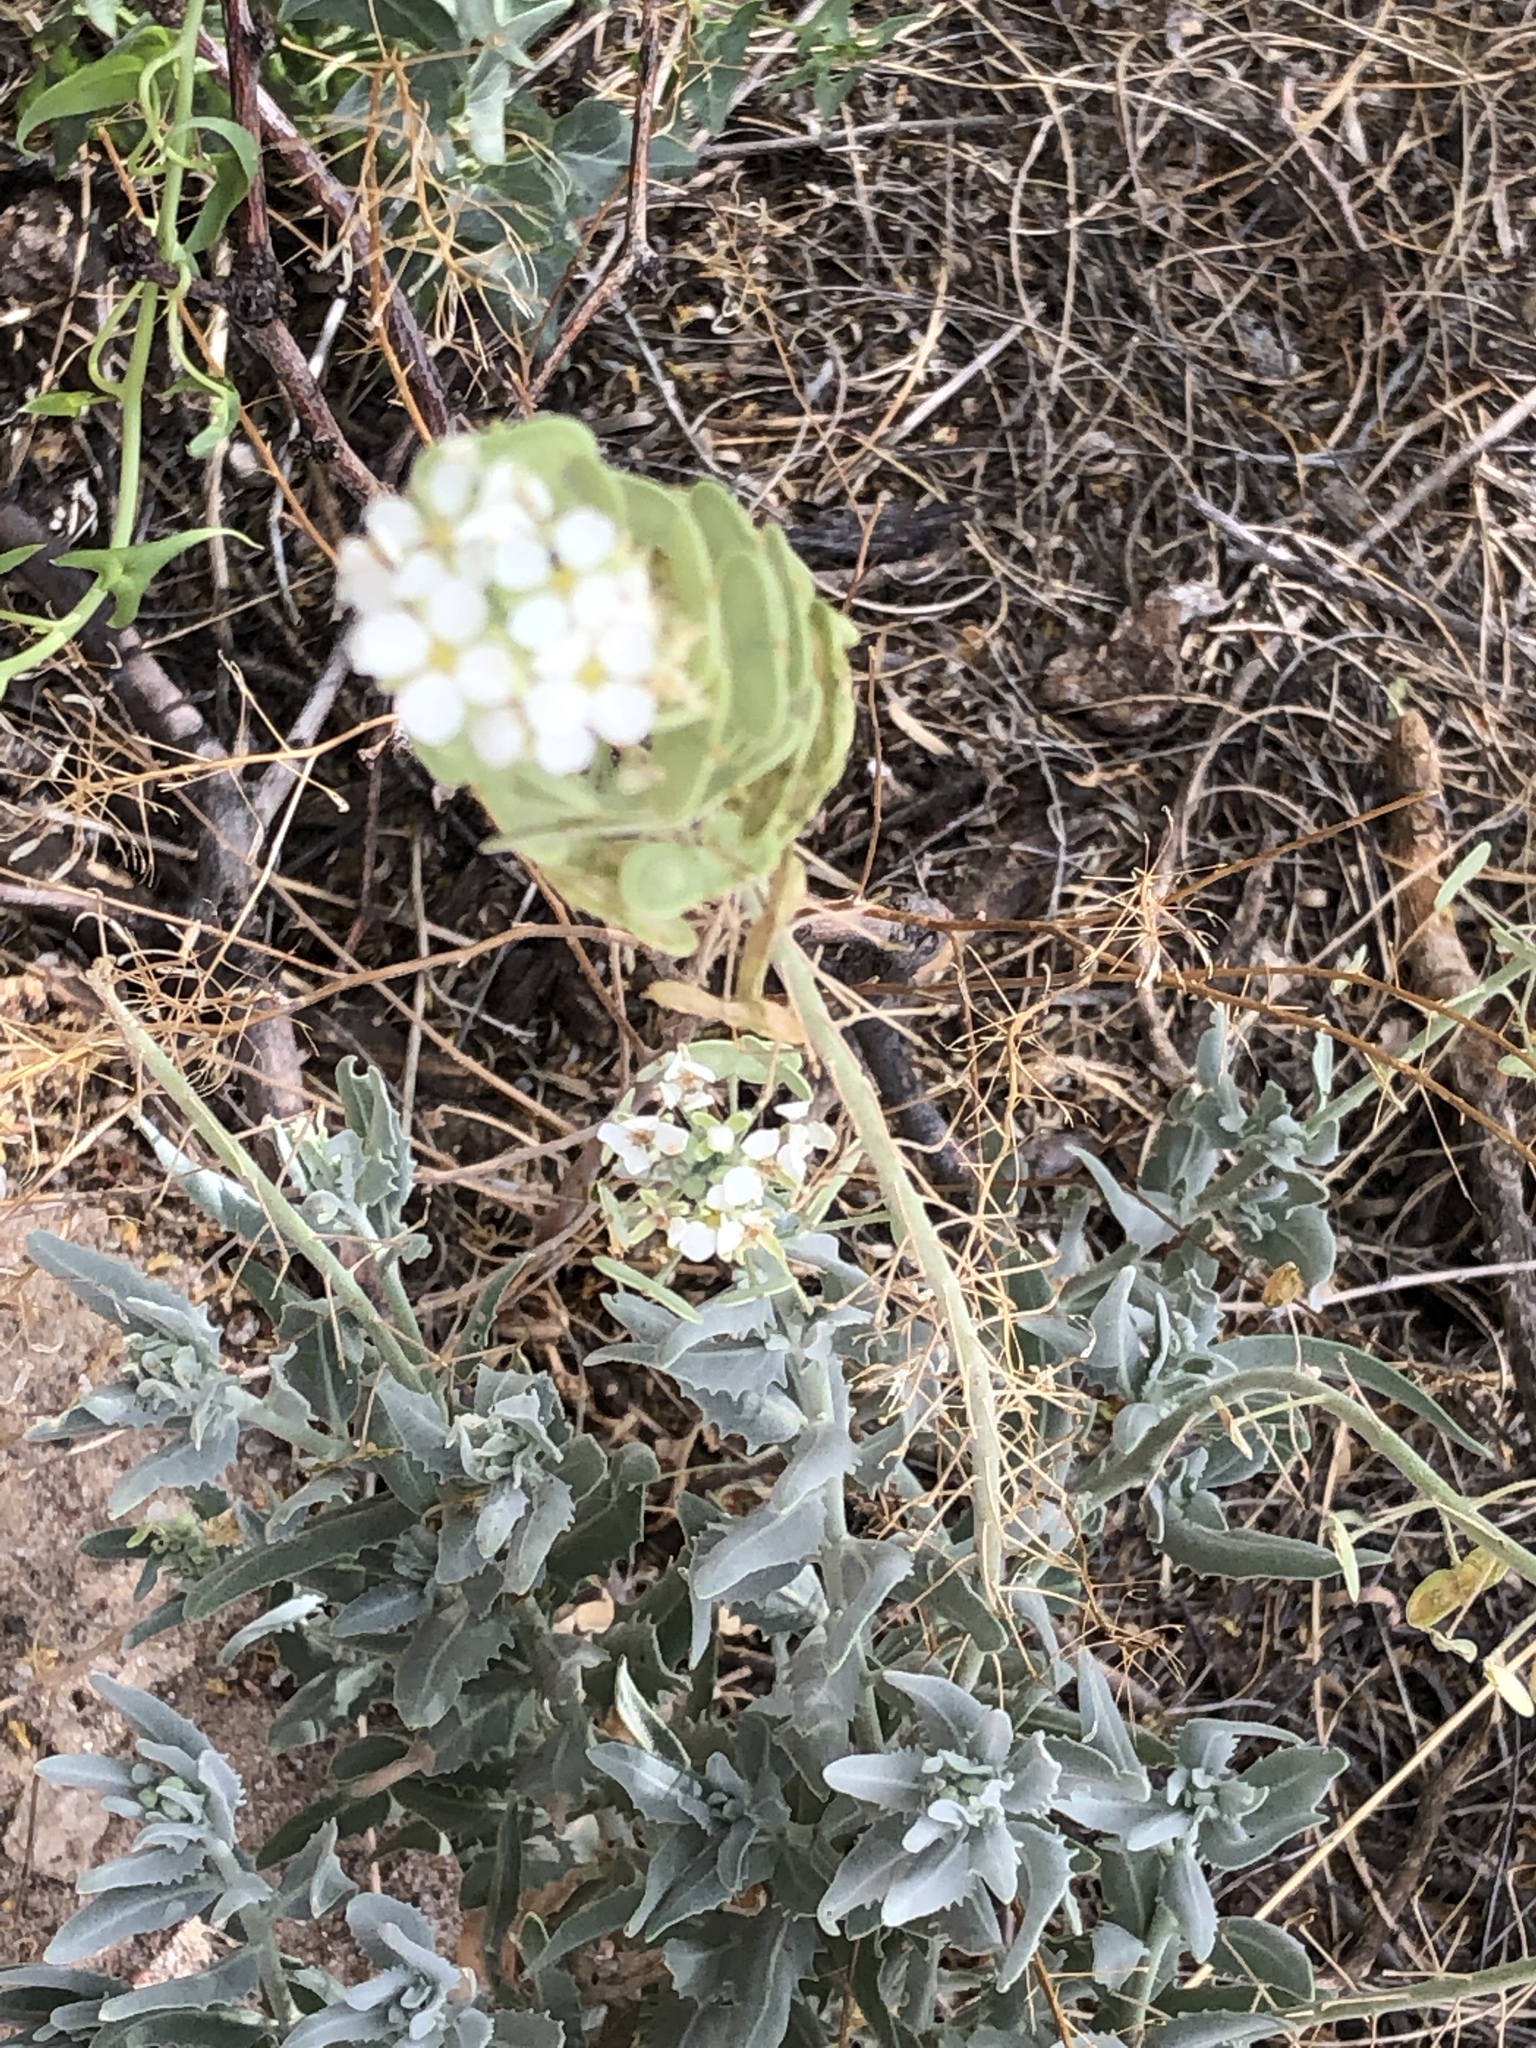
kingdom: Plantae
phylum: Tracheophyta
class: Magnoliopsida
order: Brassicales
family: Brassicaceae
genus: Dimorphocarpa
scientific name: Dimorphocarpa wislizenii
